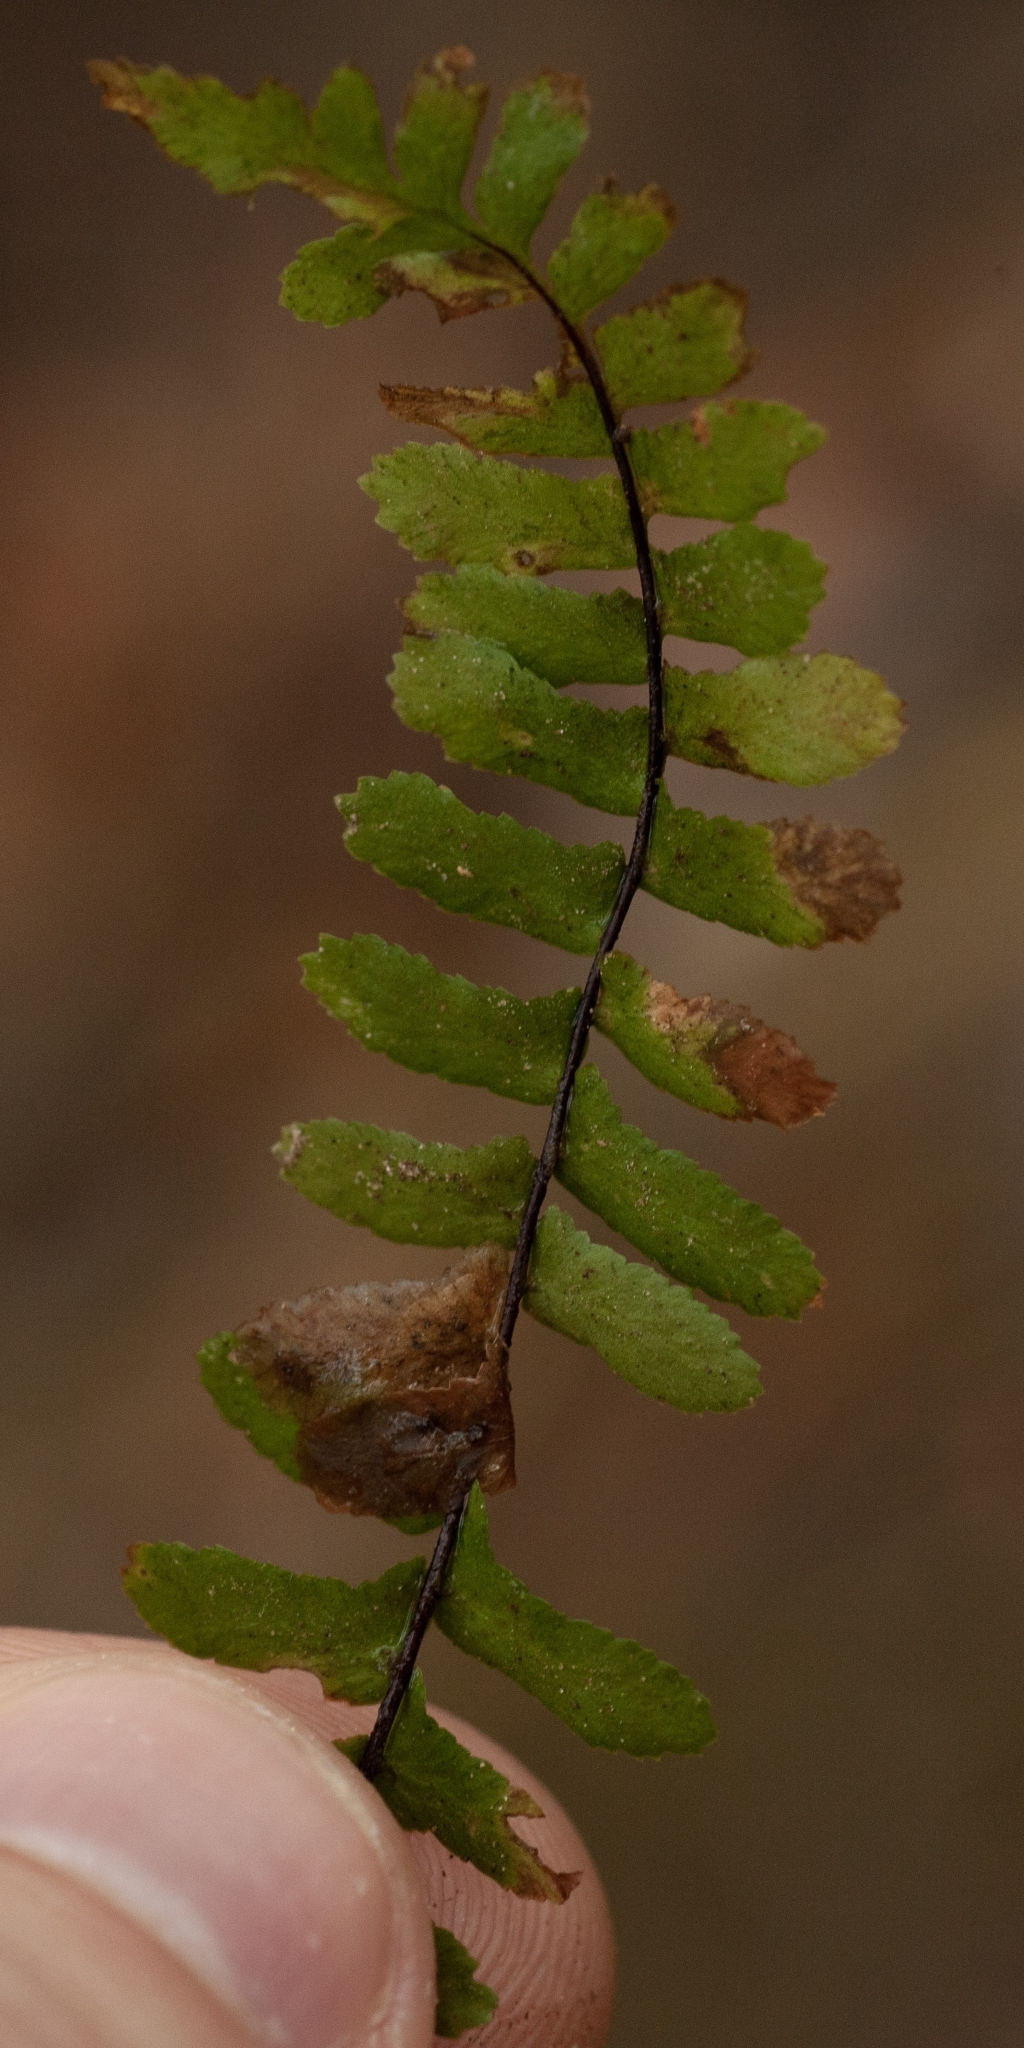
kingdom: Plantae
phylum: Tracheophyta
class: Polypodiopsida
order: Polypodiales
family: Aspleniaceae
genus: Asplenium
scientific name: Asplenium platyneuron
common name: Ebony spleenwort
